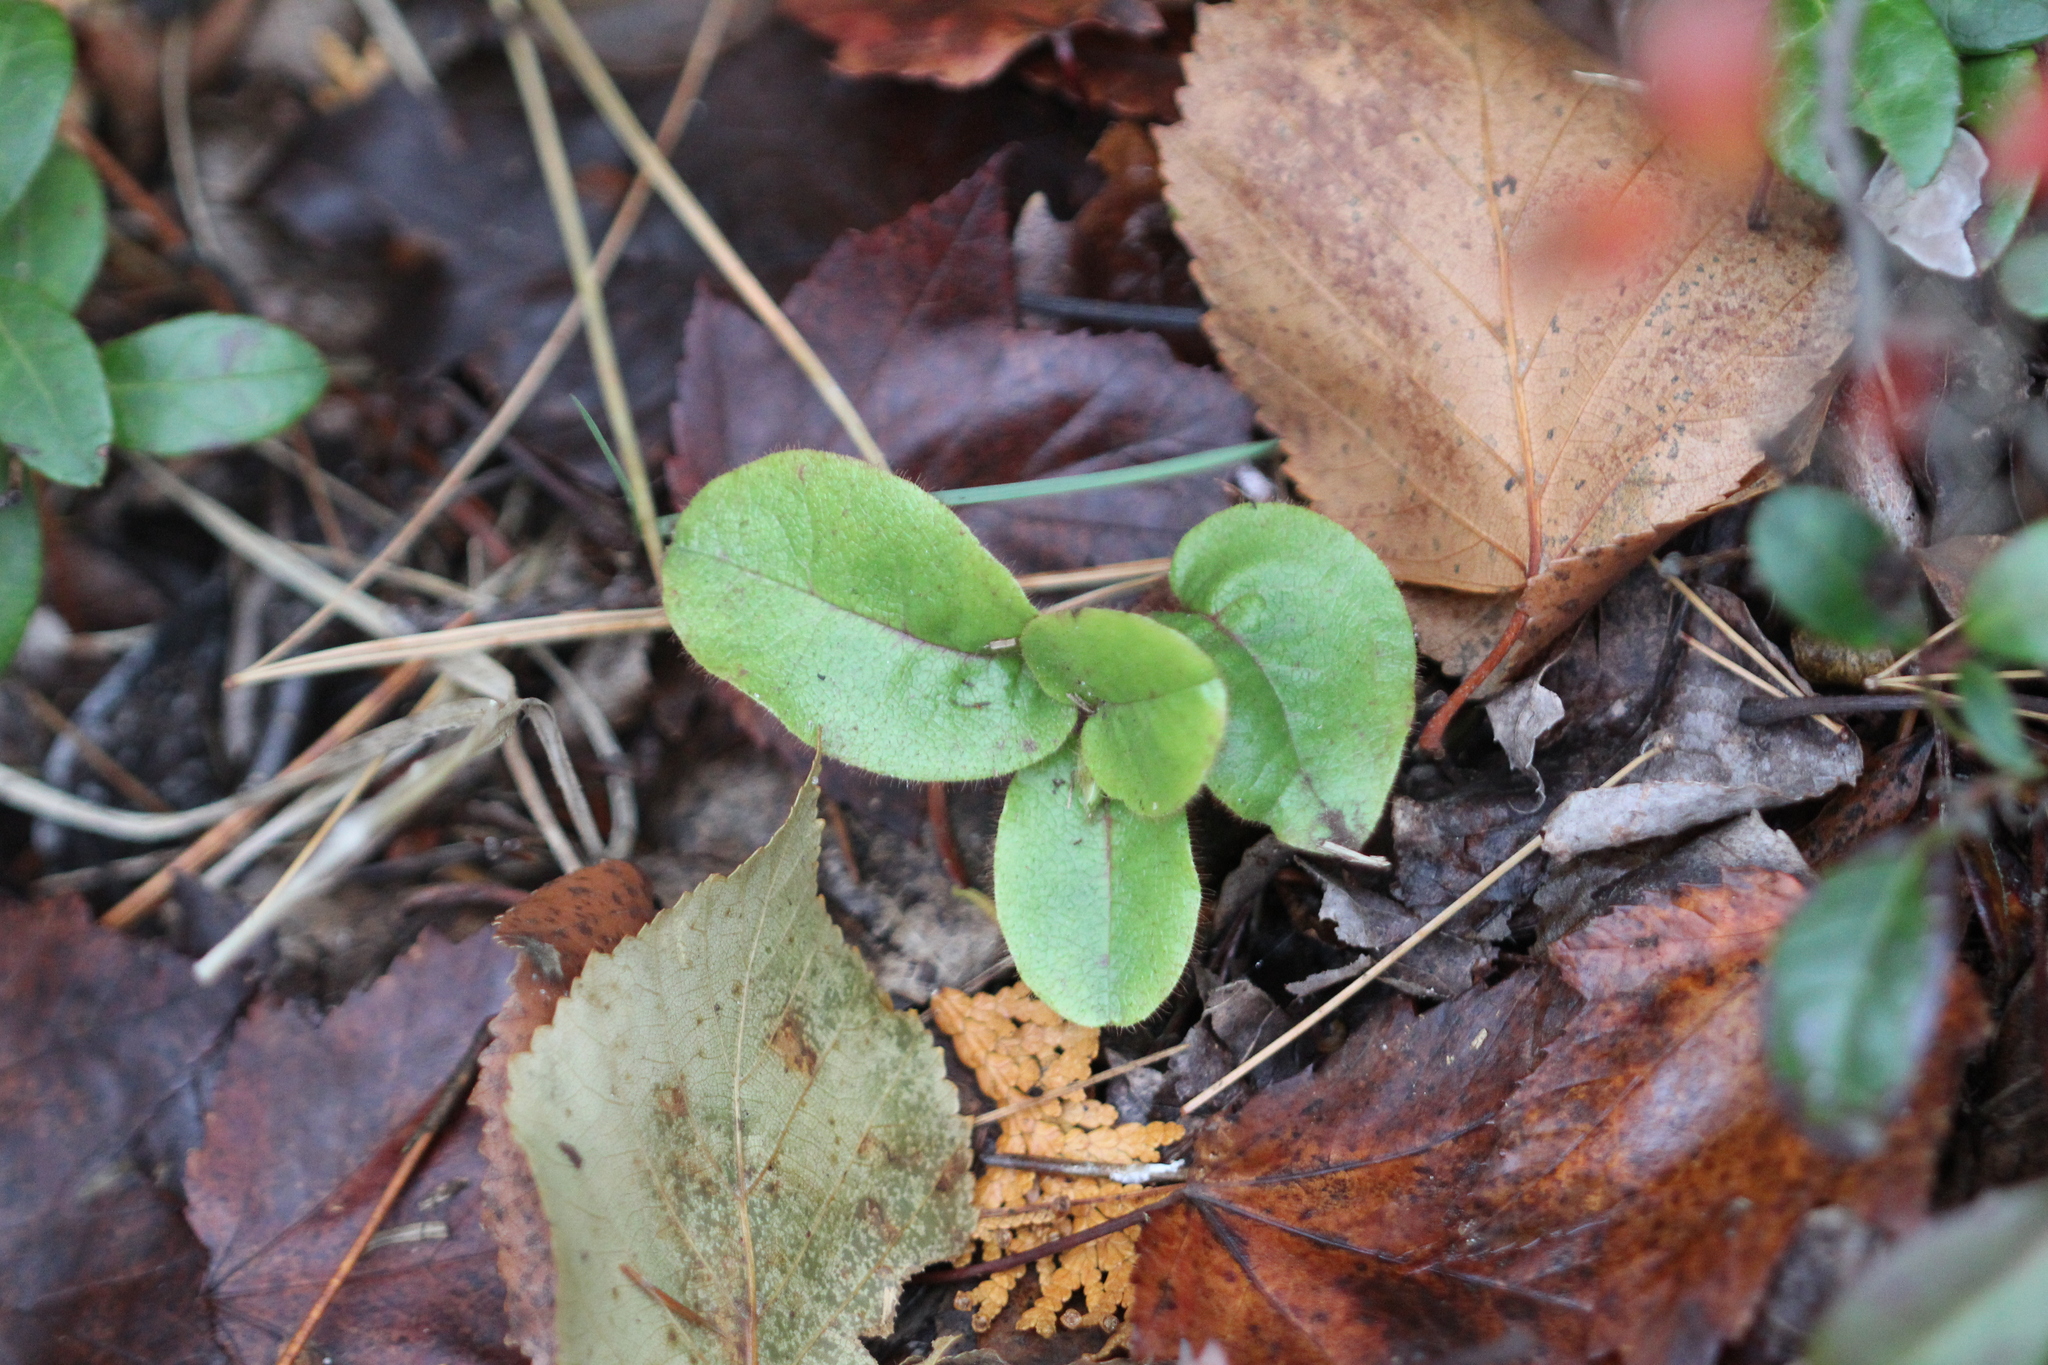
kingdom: Plantae
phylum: Tracheophyta
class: Magnoliopsida
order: Ericales
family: Ericaceae
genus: Epigaea
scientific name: Epigaea repens
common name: Gravelroot
